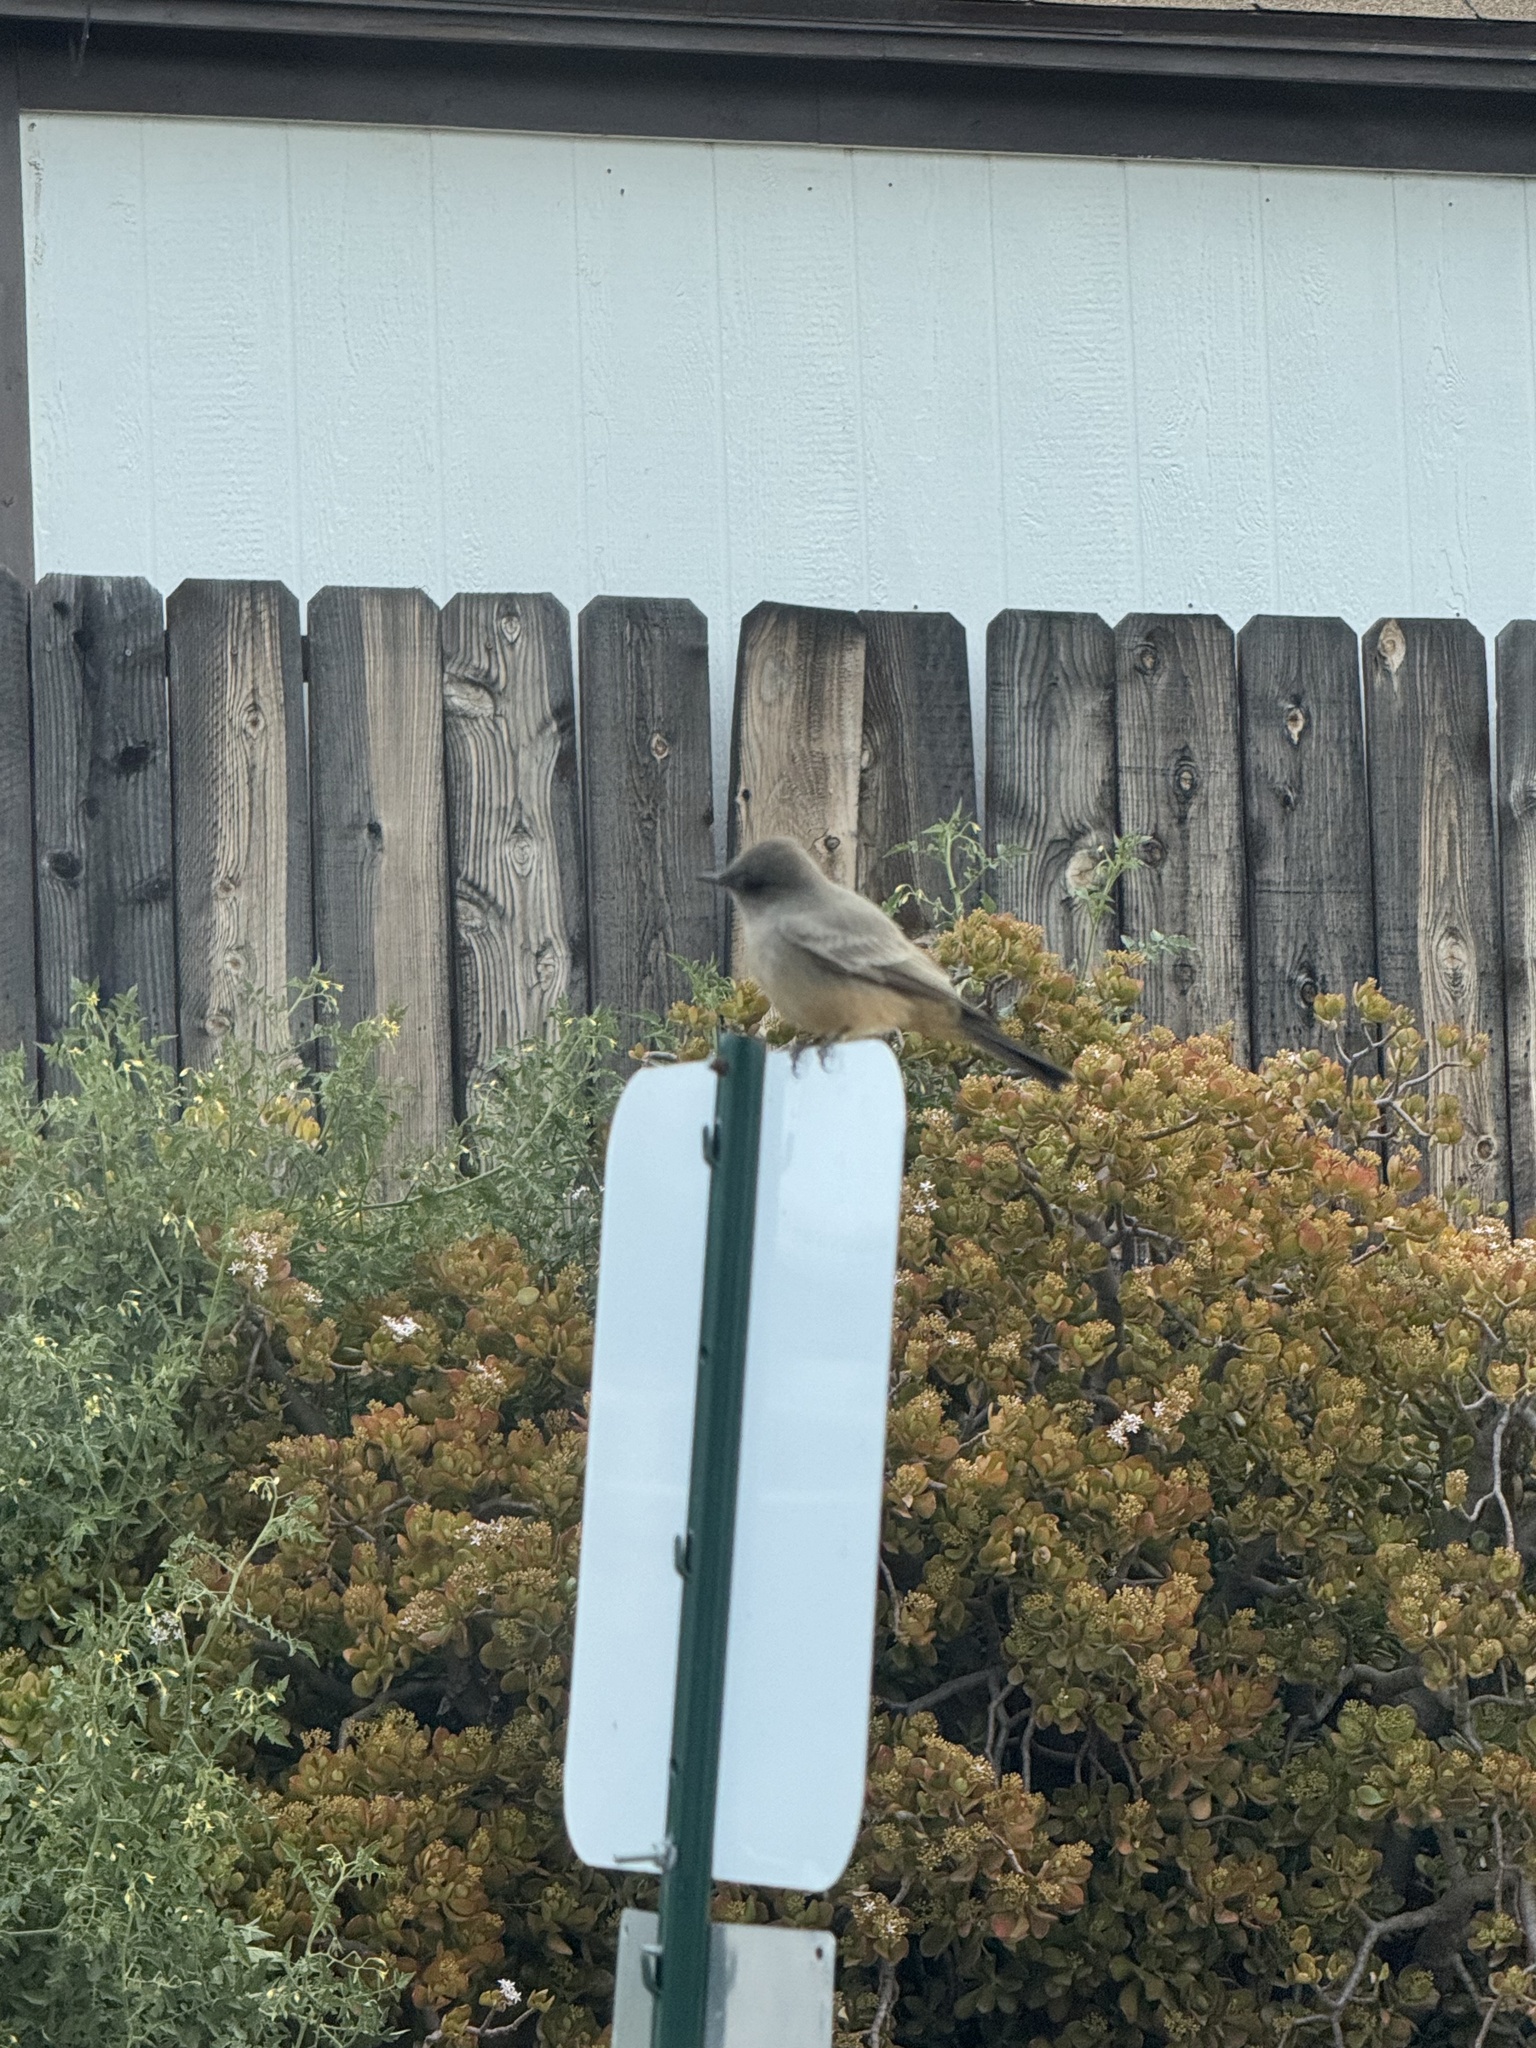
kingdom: Animalia
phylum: Chordata
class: Aves
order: Passeriformes
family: Tyrannidae
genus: Sayornis
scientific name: Sayornis saya
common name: Say's phoebe
